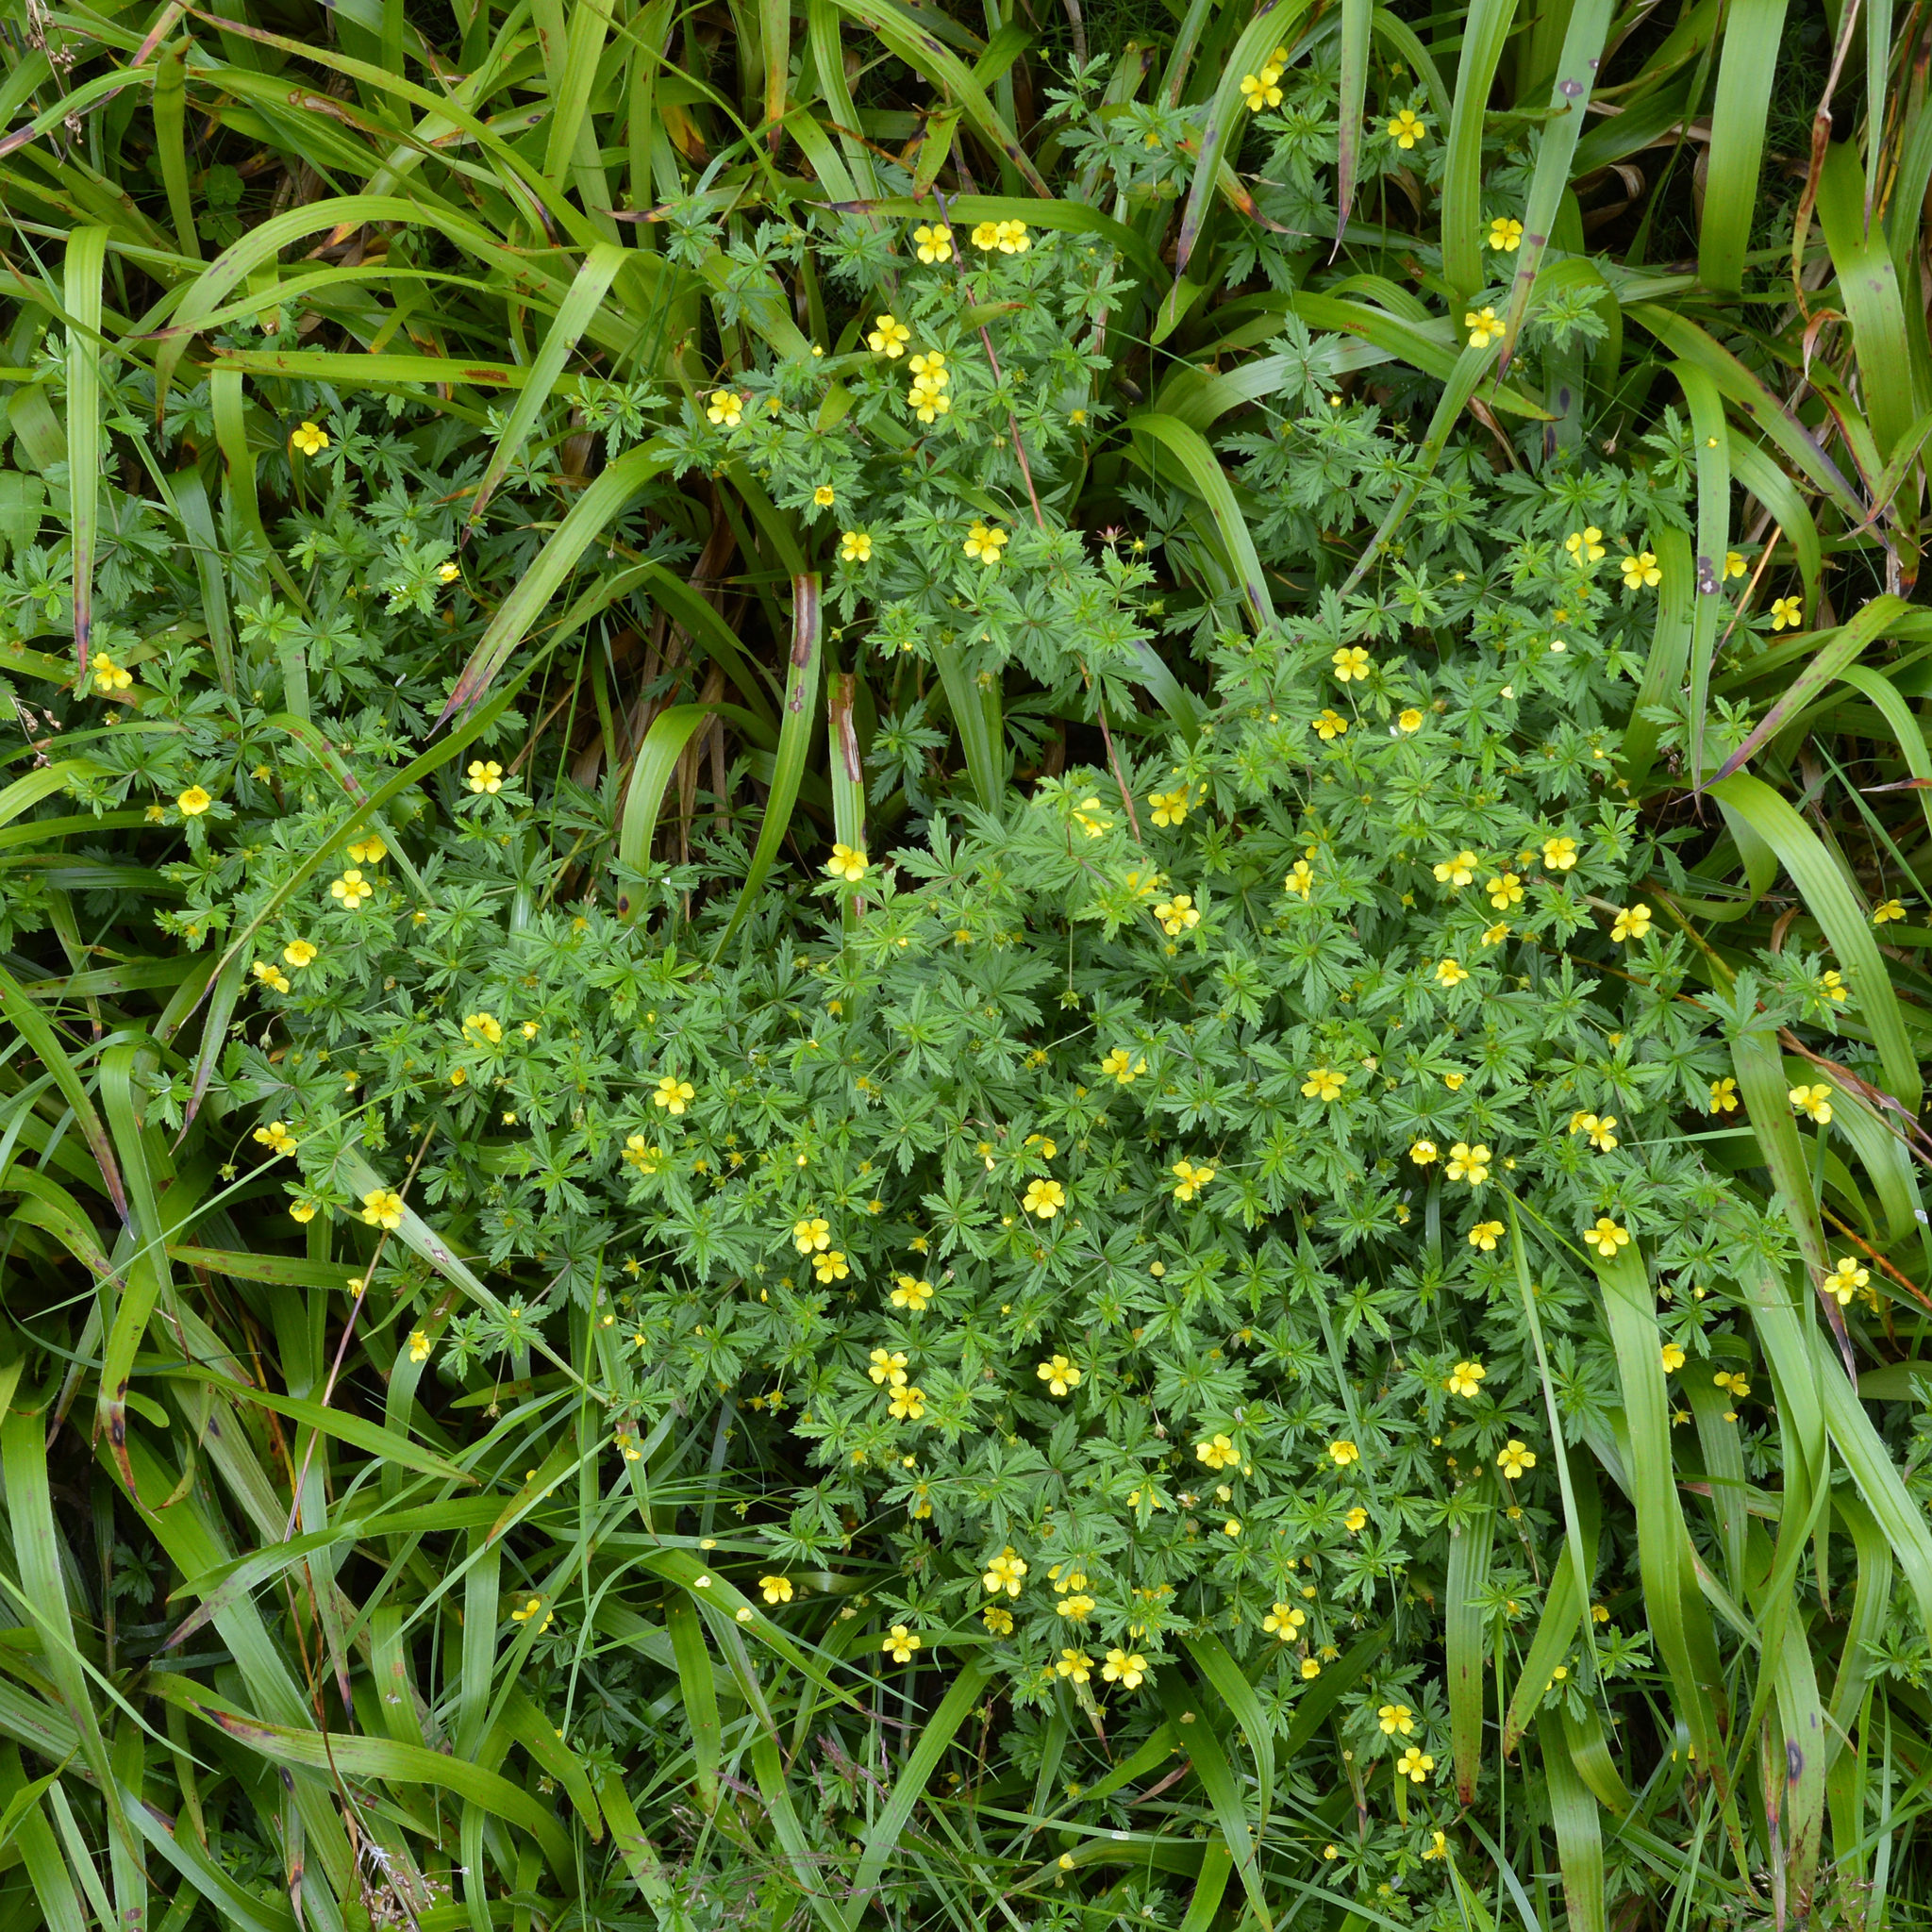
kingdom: Plantae
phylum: Tracheophyta
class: Magnoliopsida
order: Rosales
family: Rosaceae
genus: Potentilla
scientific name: Potentilla erecta
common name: Tormentil
